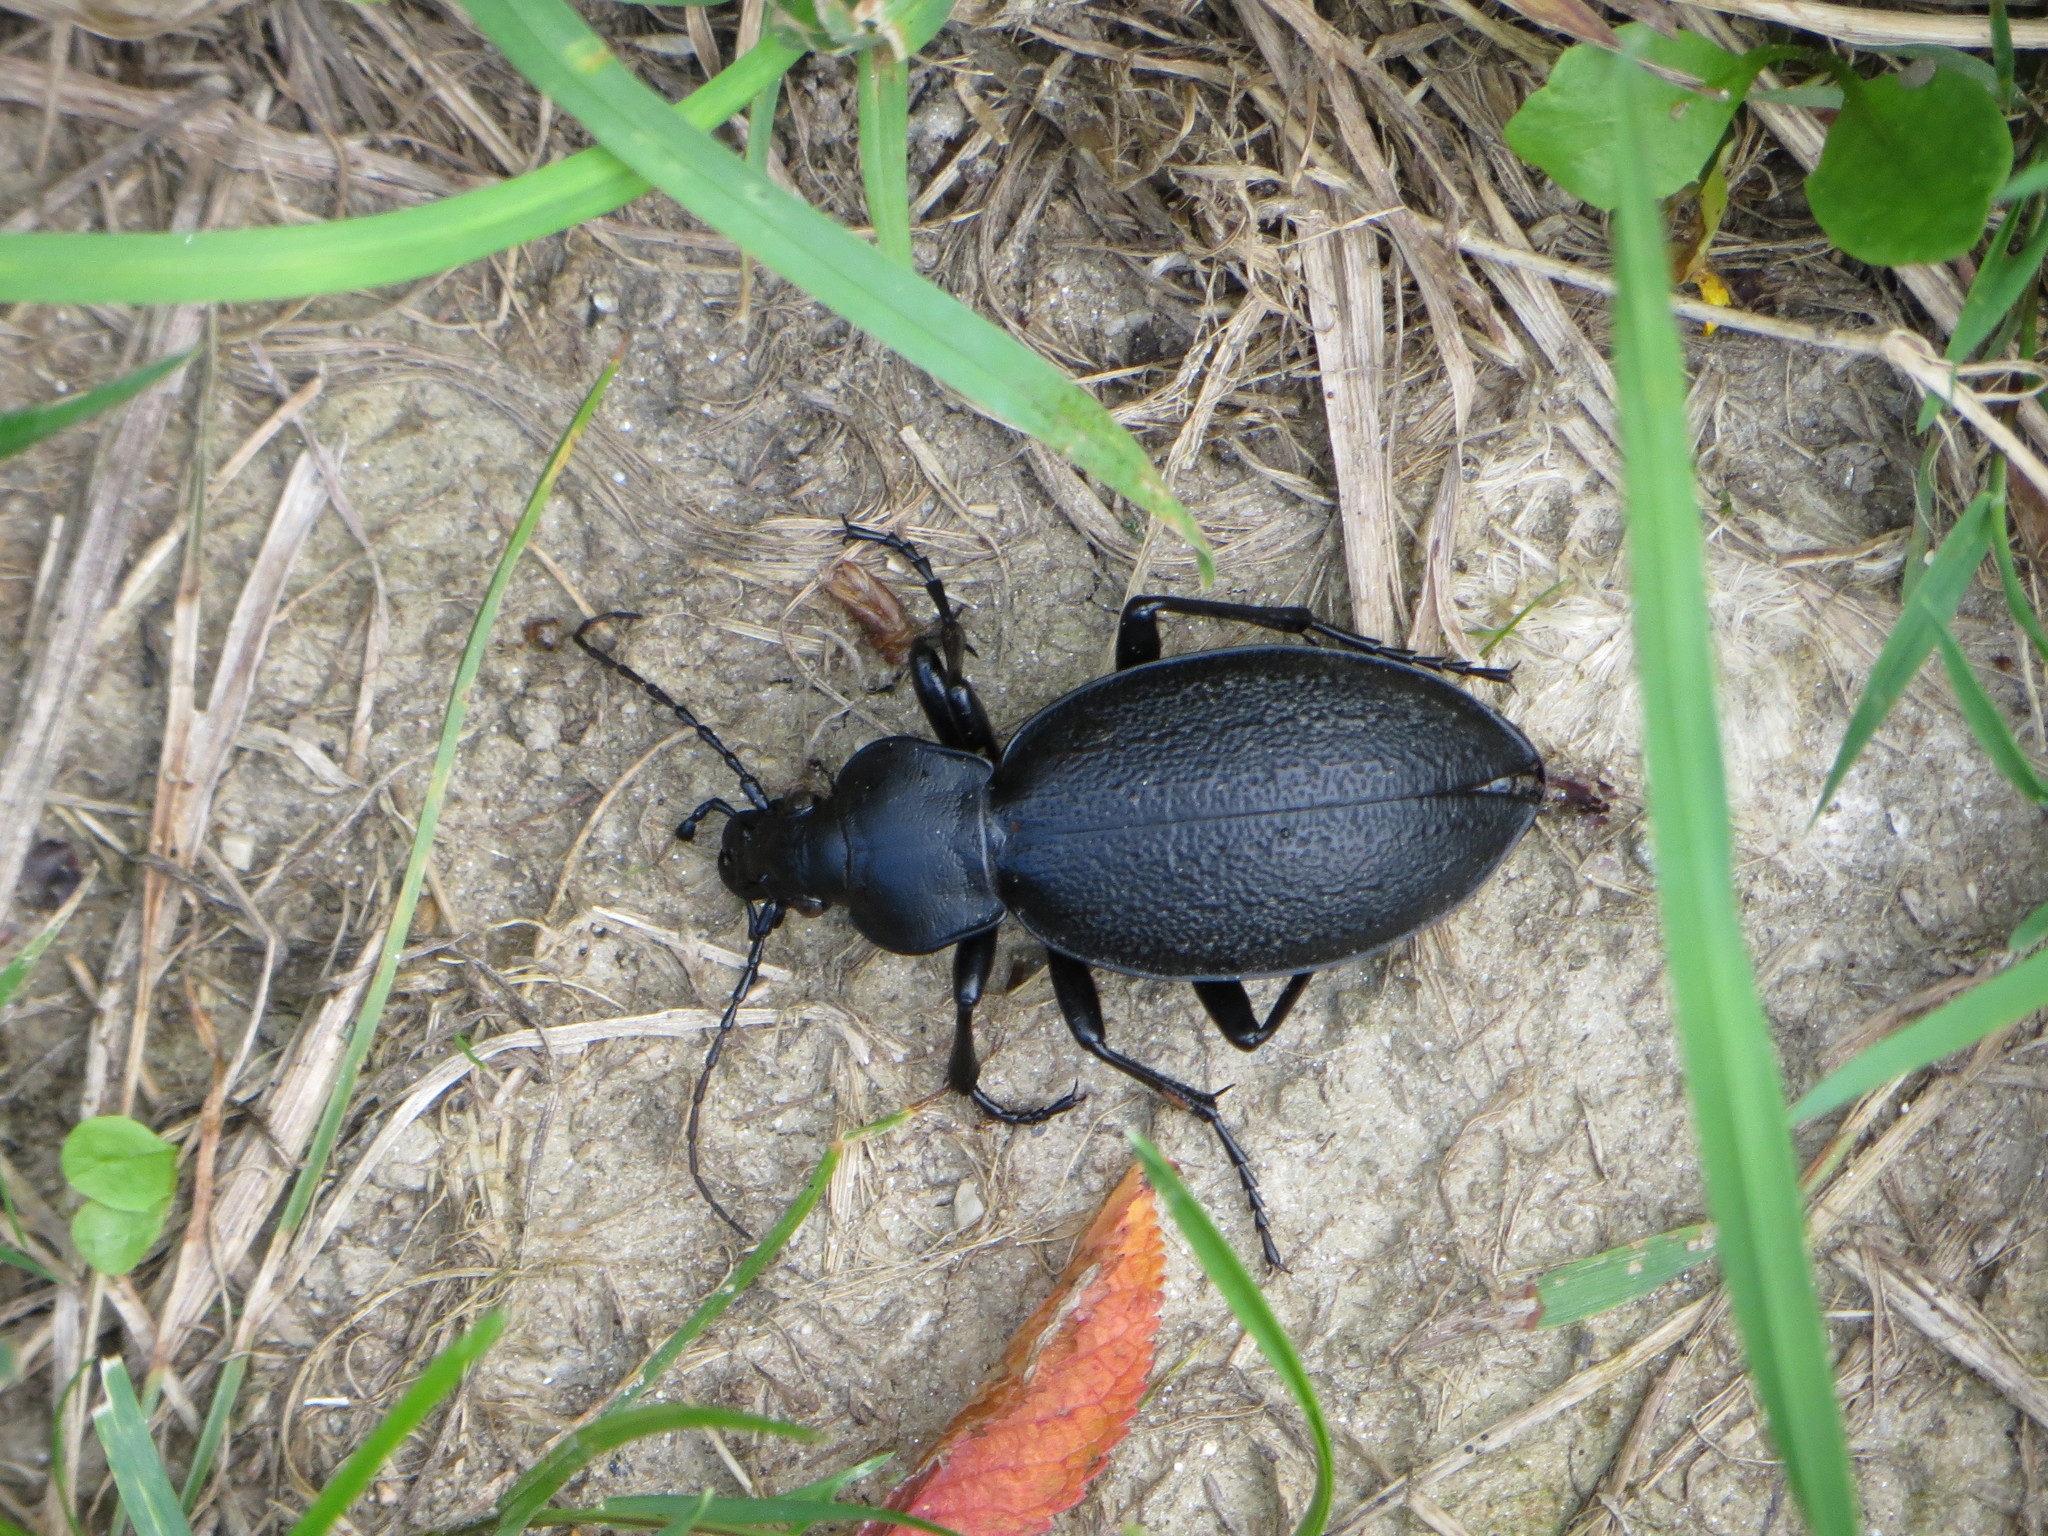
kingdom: Animalia
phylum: Arthropoda
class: Insecta
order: Coleoptera
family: Carabidae
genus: Carabus
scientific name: Carabus coriaceus
